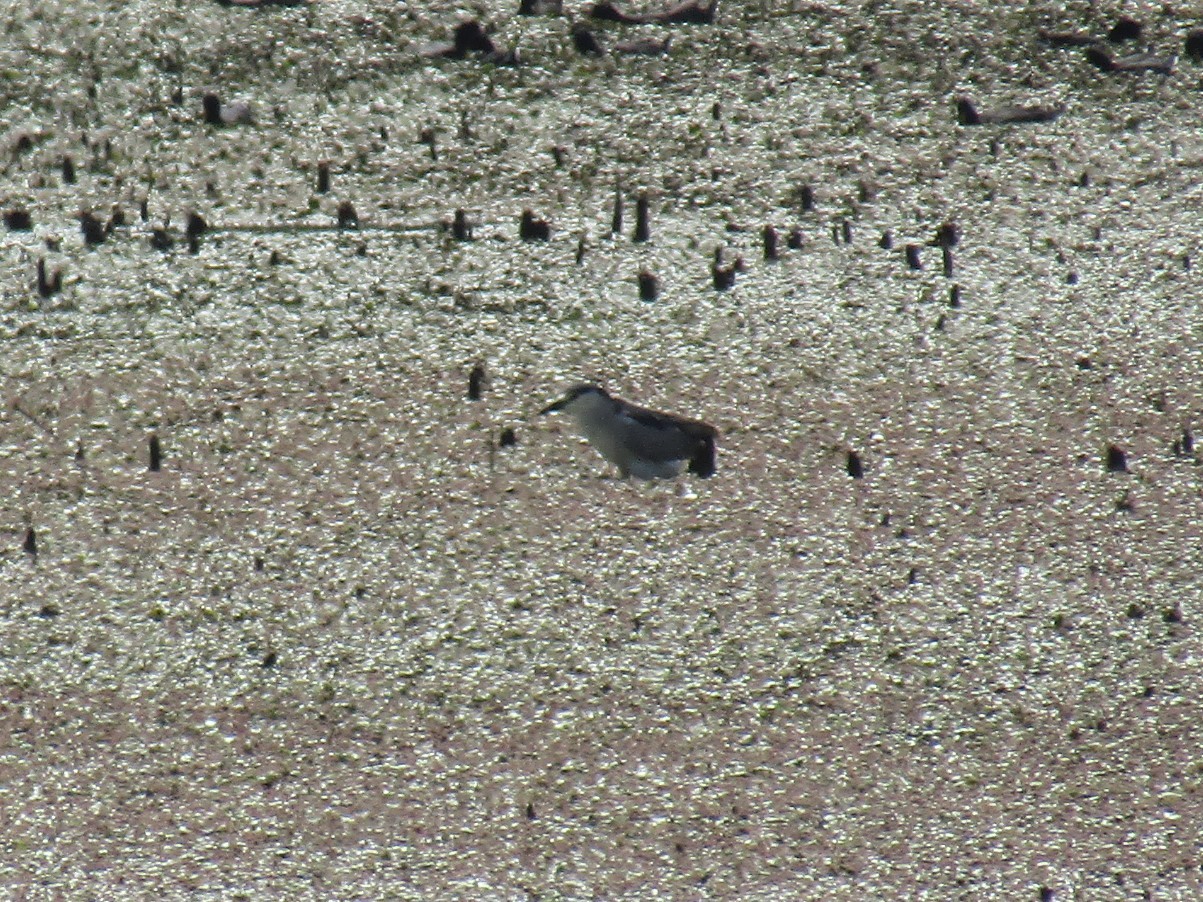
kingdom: Animalia
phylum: Chordata
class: Aves
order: Pelecaniformes
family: Ardeidae
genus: Nycticorax
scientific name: Nycticorax nycticorax
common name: Black-crowned night heron
